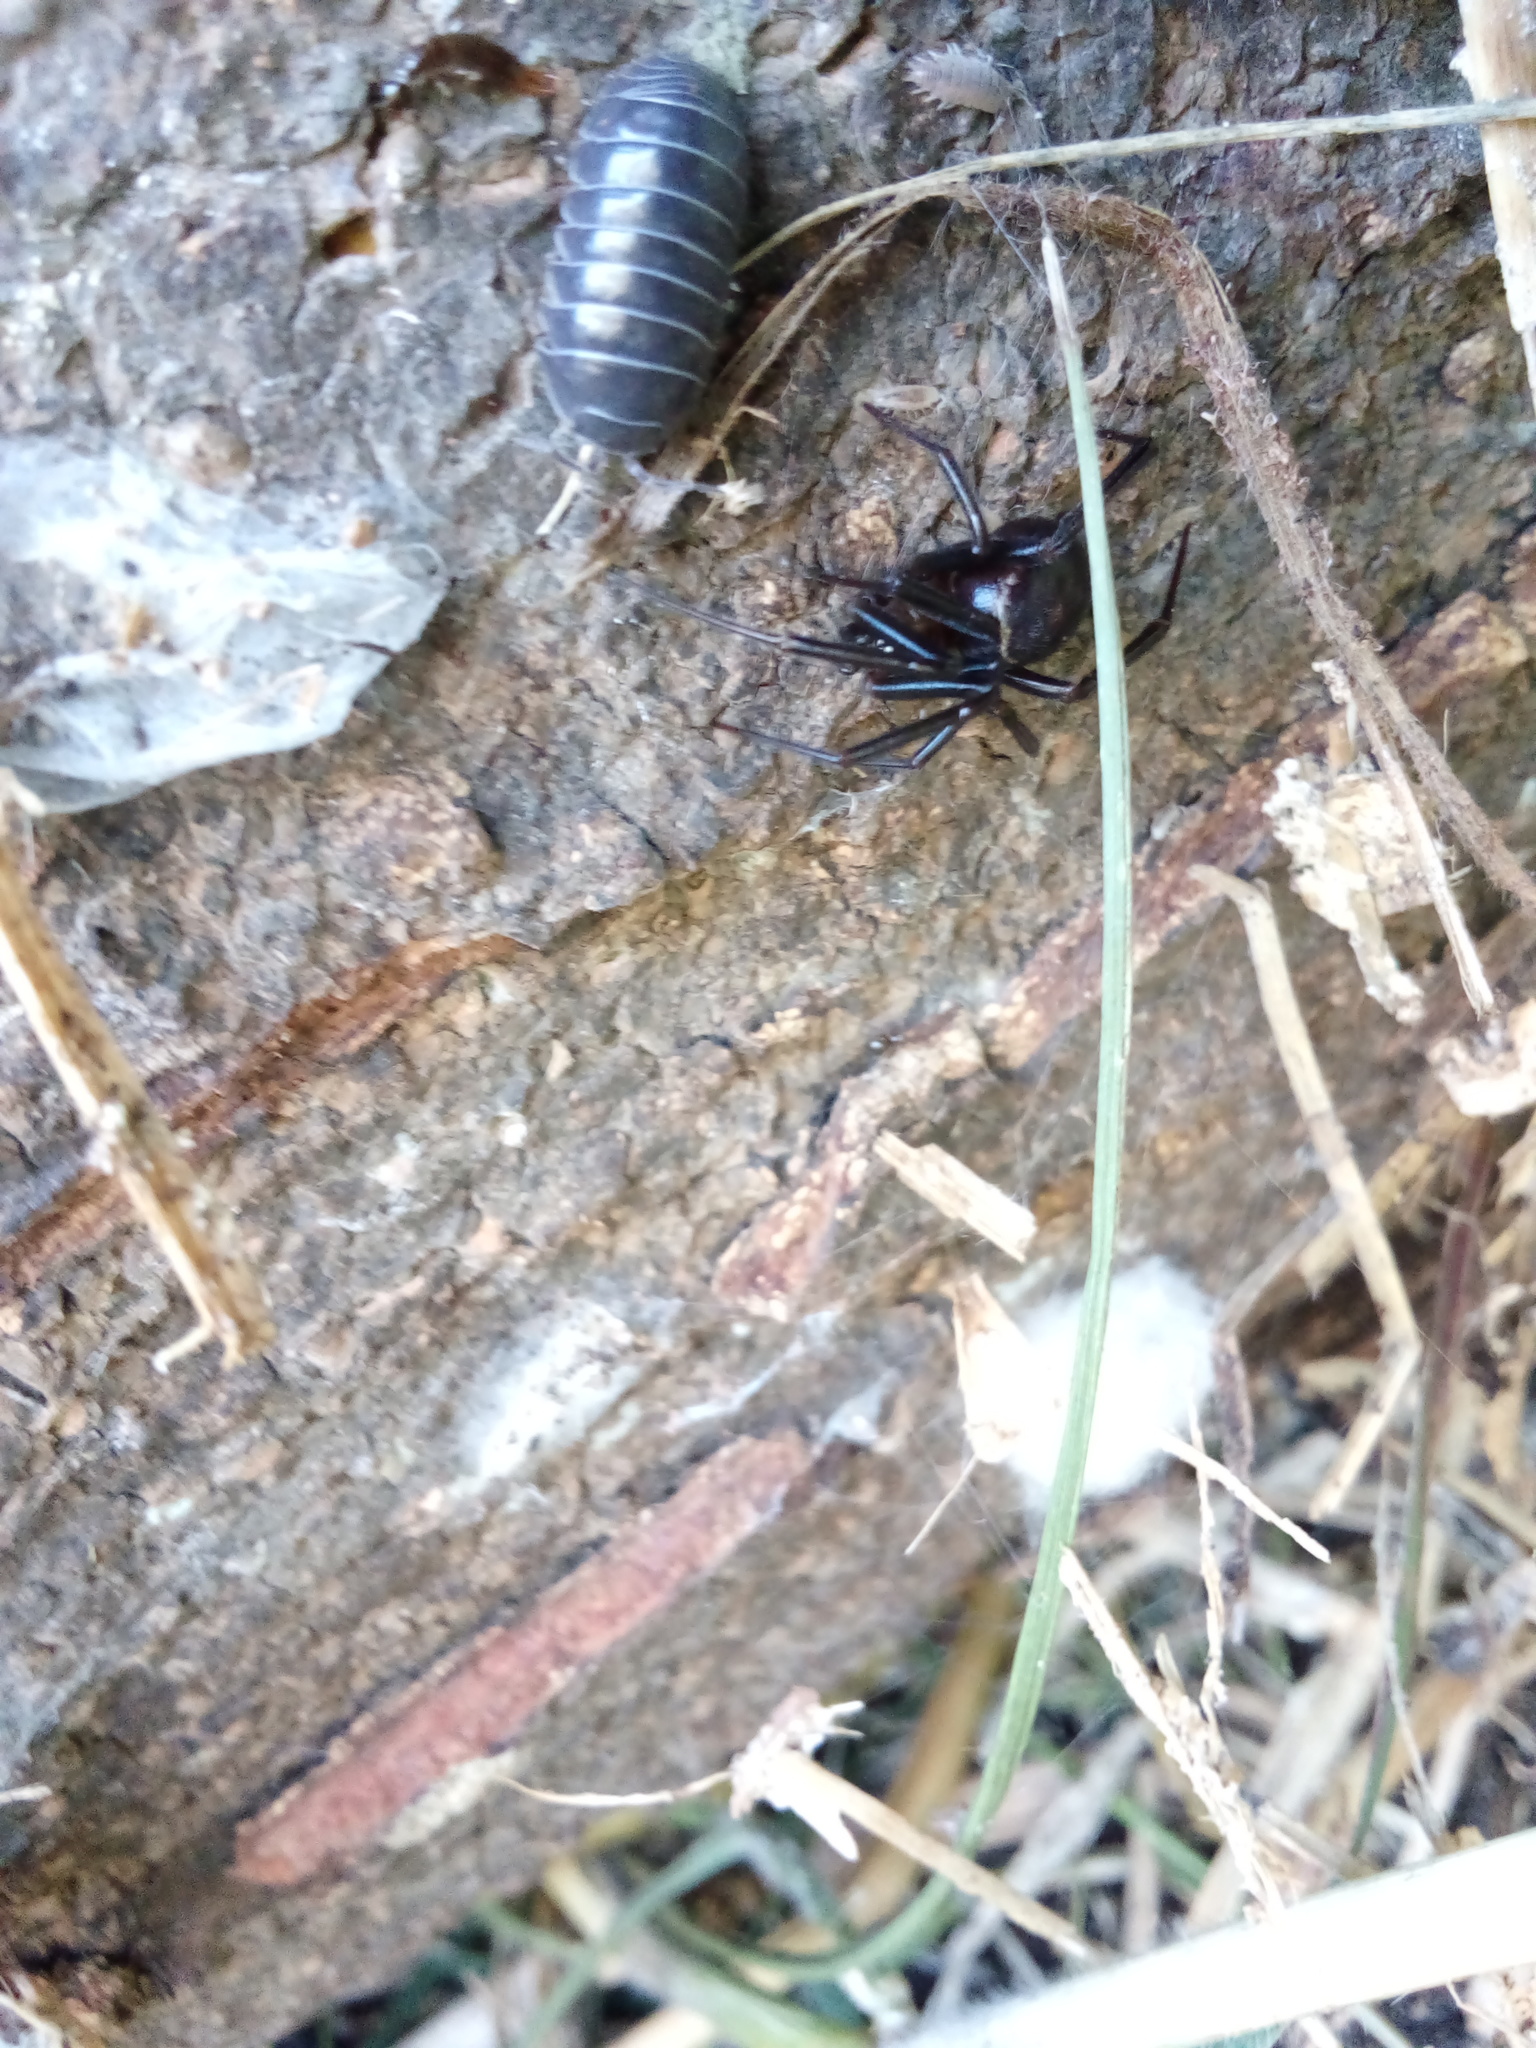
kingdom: Animalia
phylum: Arthropoda
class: Arachnida
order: Araneae
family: Theridiidae
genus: Steatoda
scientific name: Steatoda grossa
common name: False black widow
